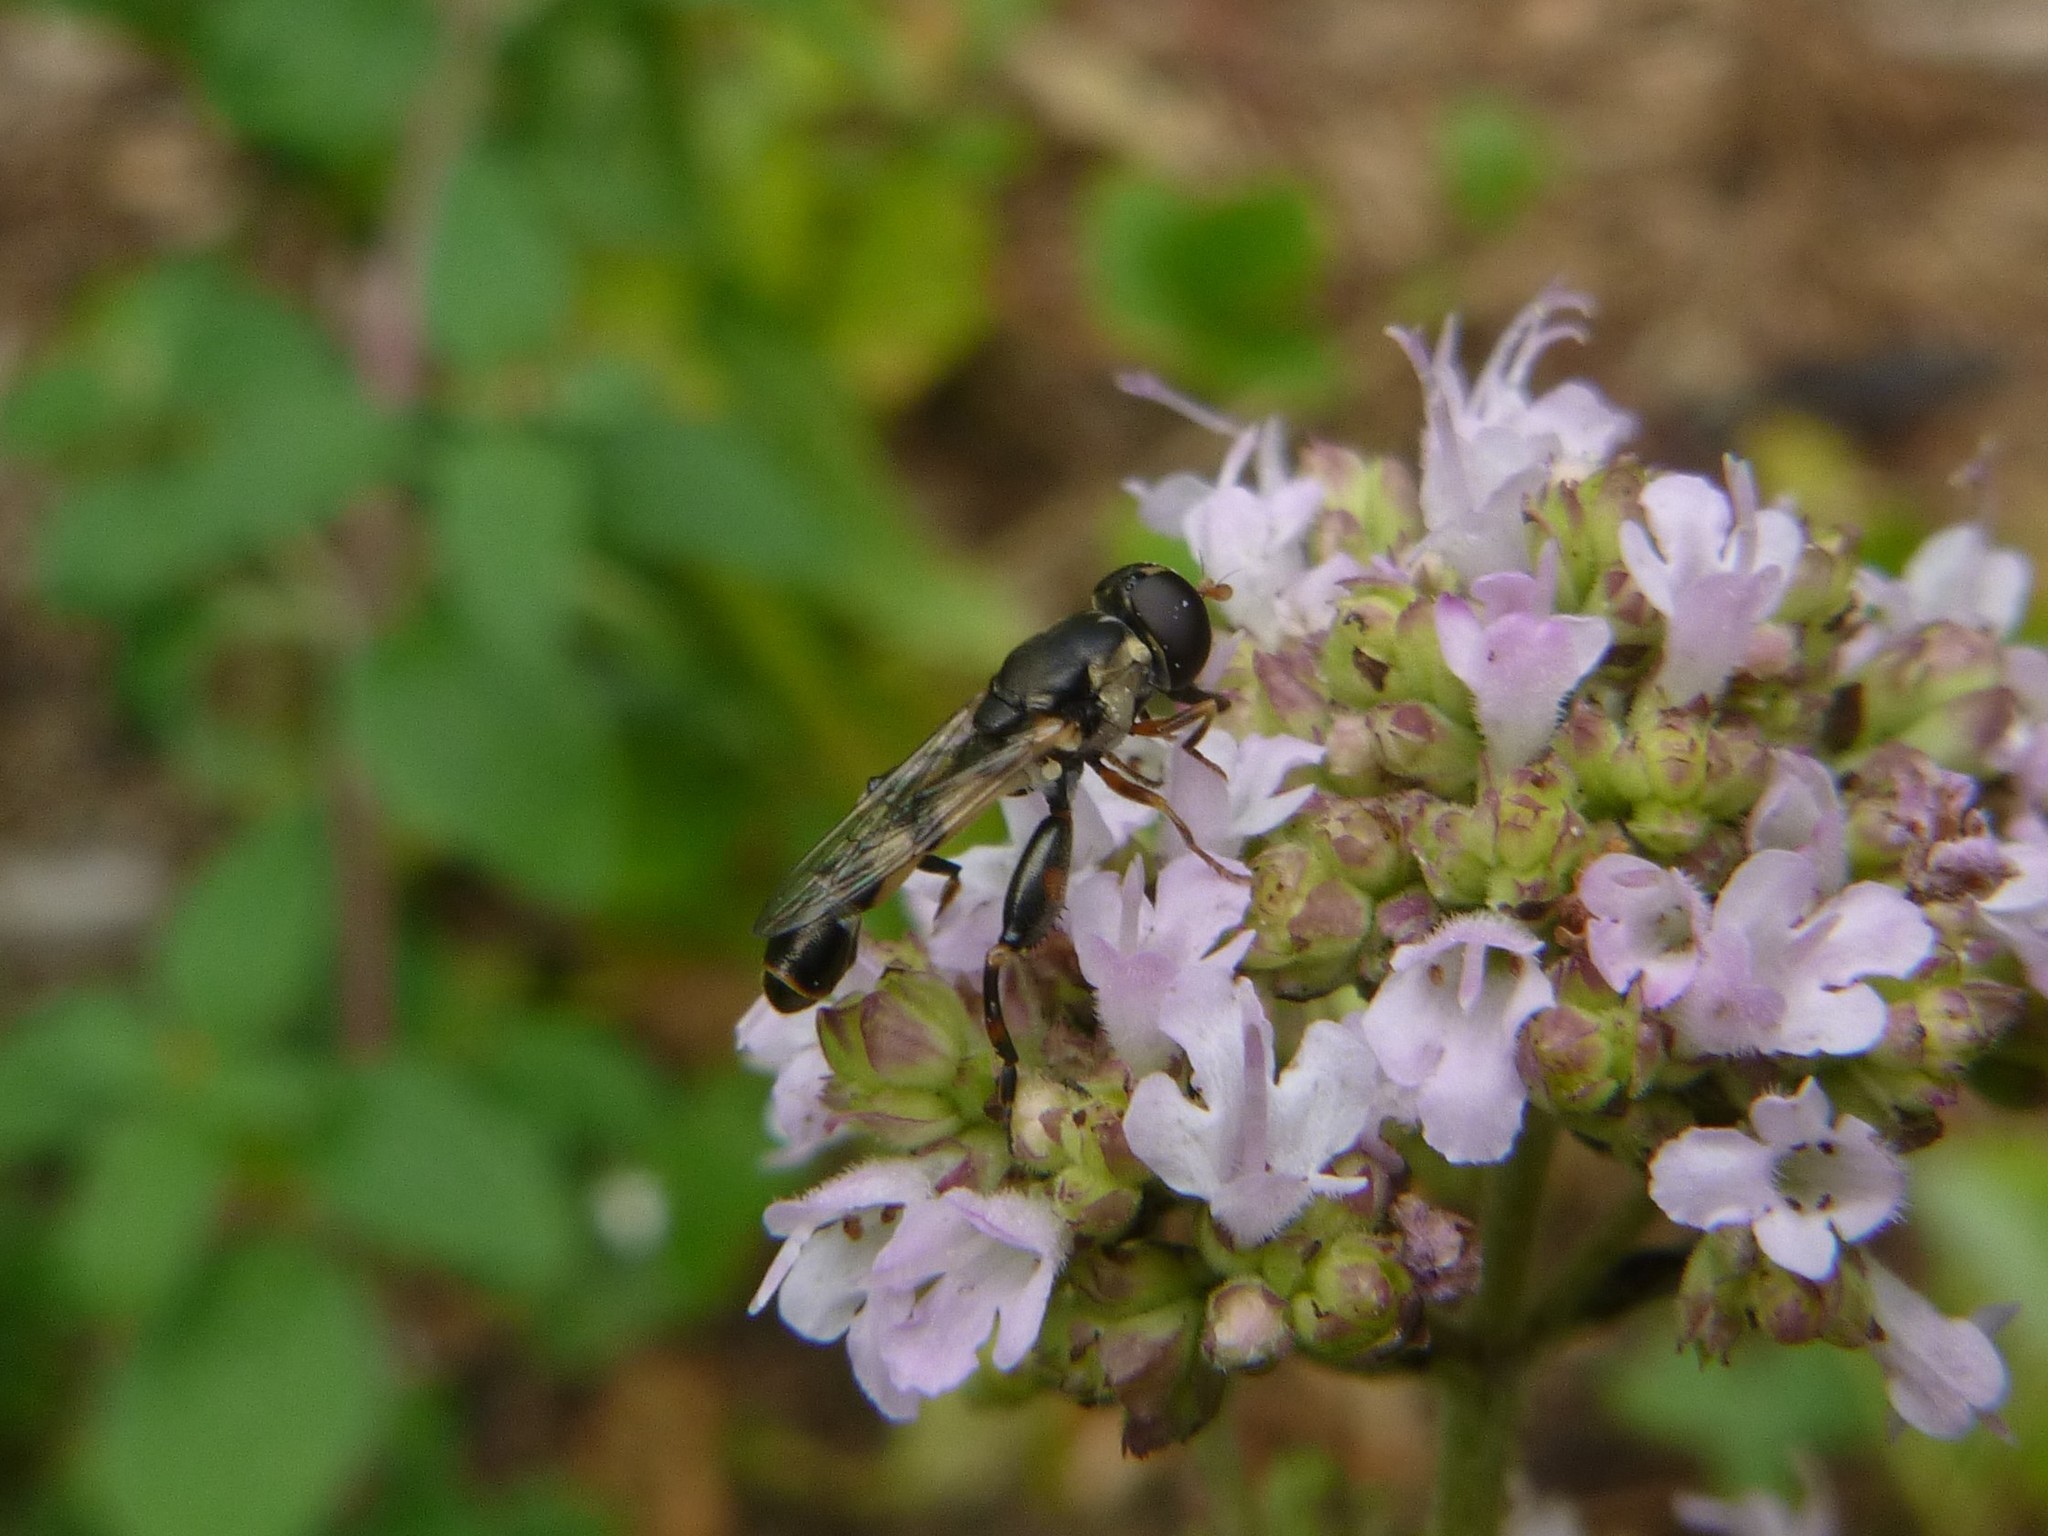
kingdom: Animalia
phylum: Arthropoda
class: Insecta
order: Diptera
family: Syrphidae
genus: Syritta
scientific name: Syritta pipiens
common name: Hover fly
